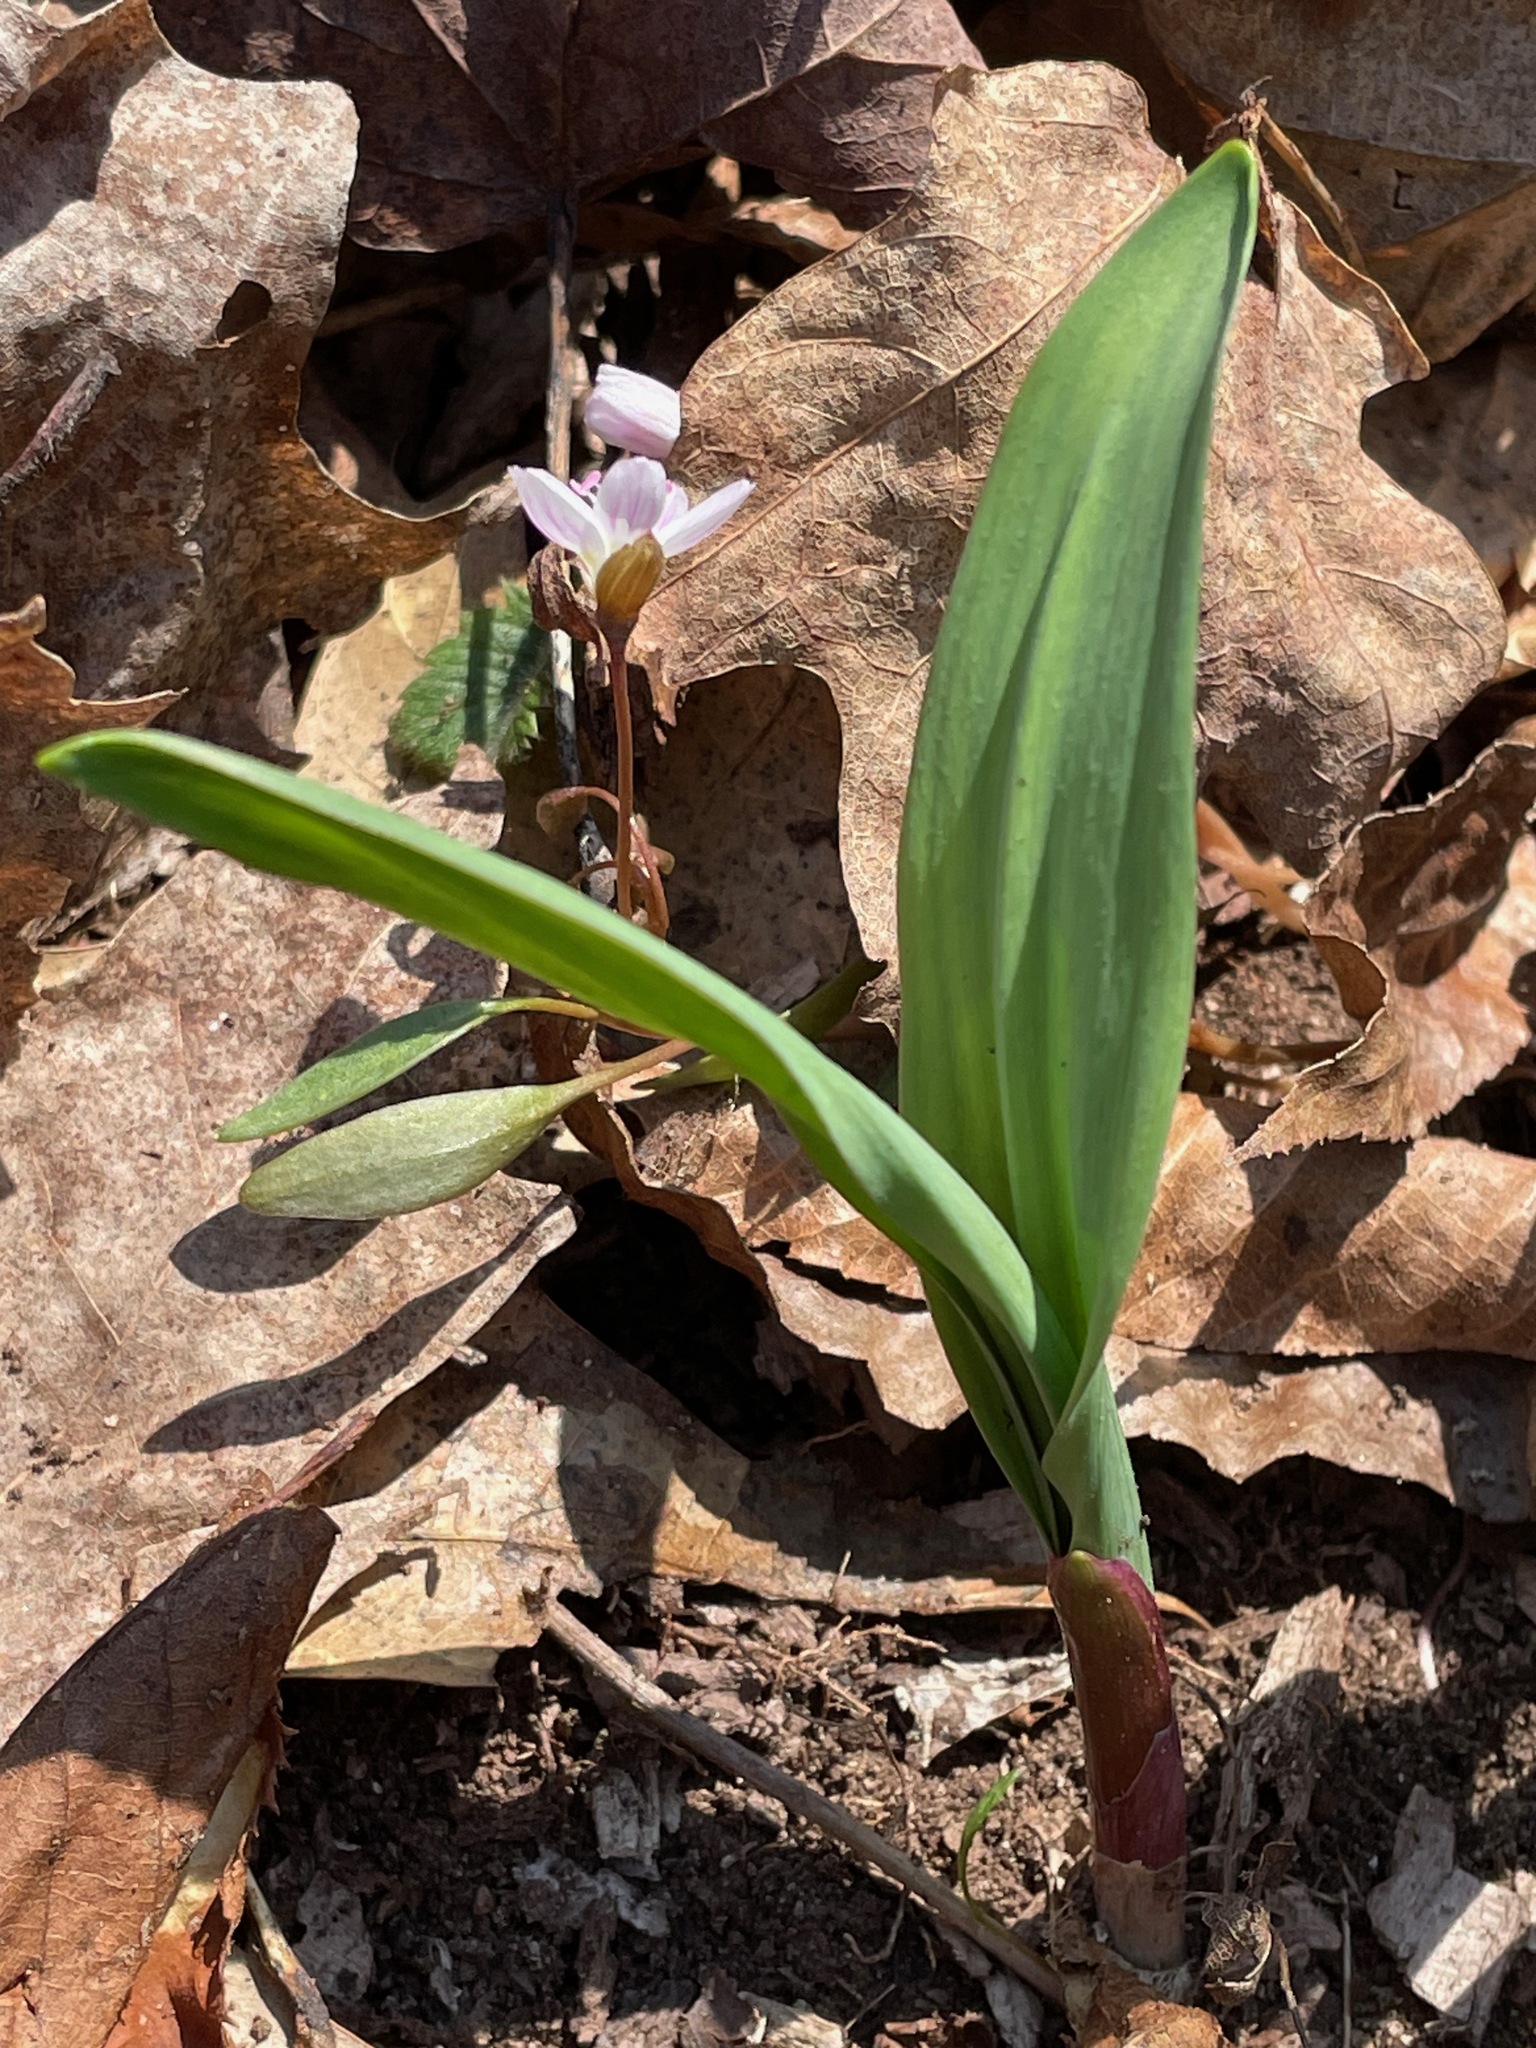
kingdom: Plantae
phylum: Tracheophyta
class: Liliopsida
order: Asparagales
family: Amaryllidaceae
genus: Allium
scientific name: Allium tricoccum
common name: Ramp
